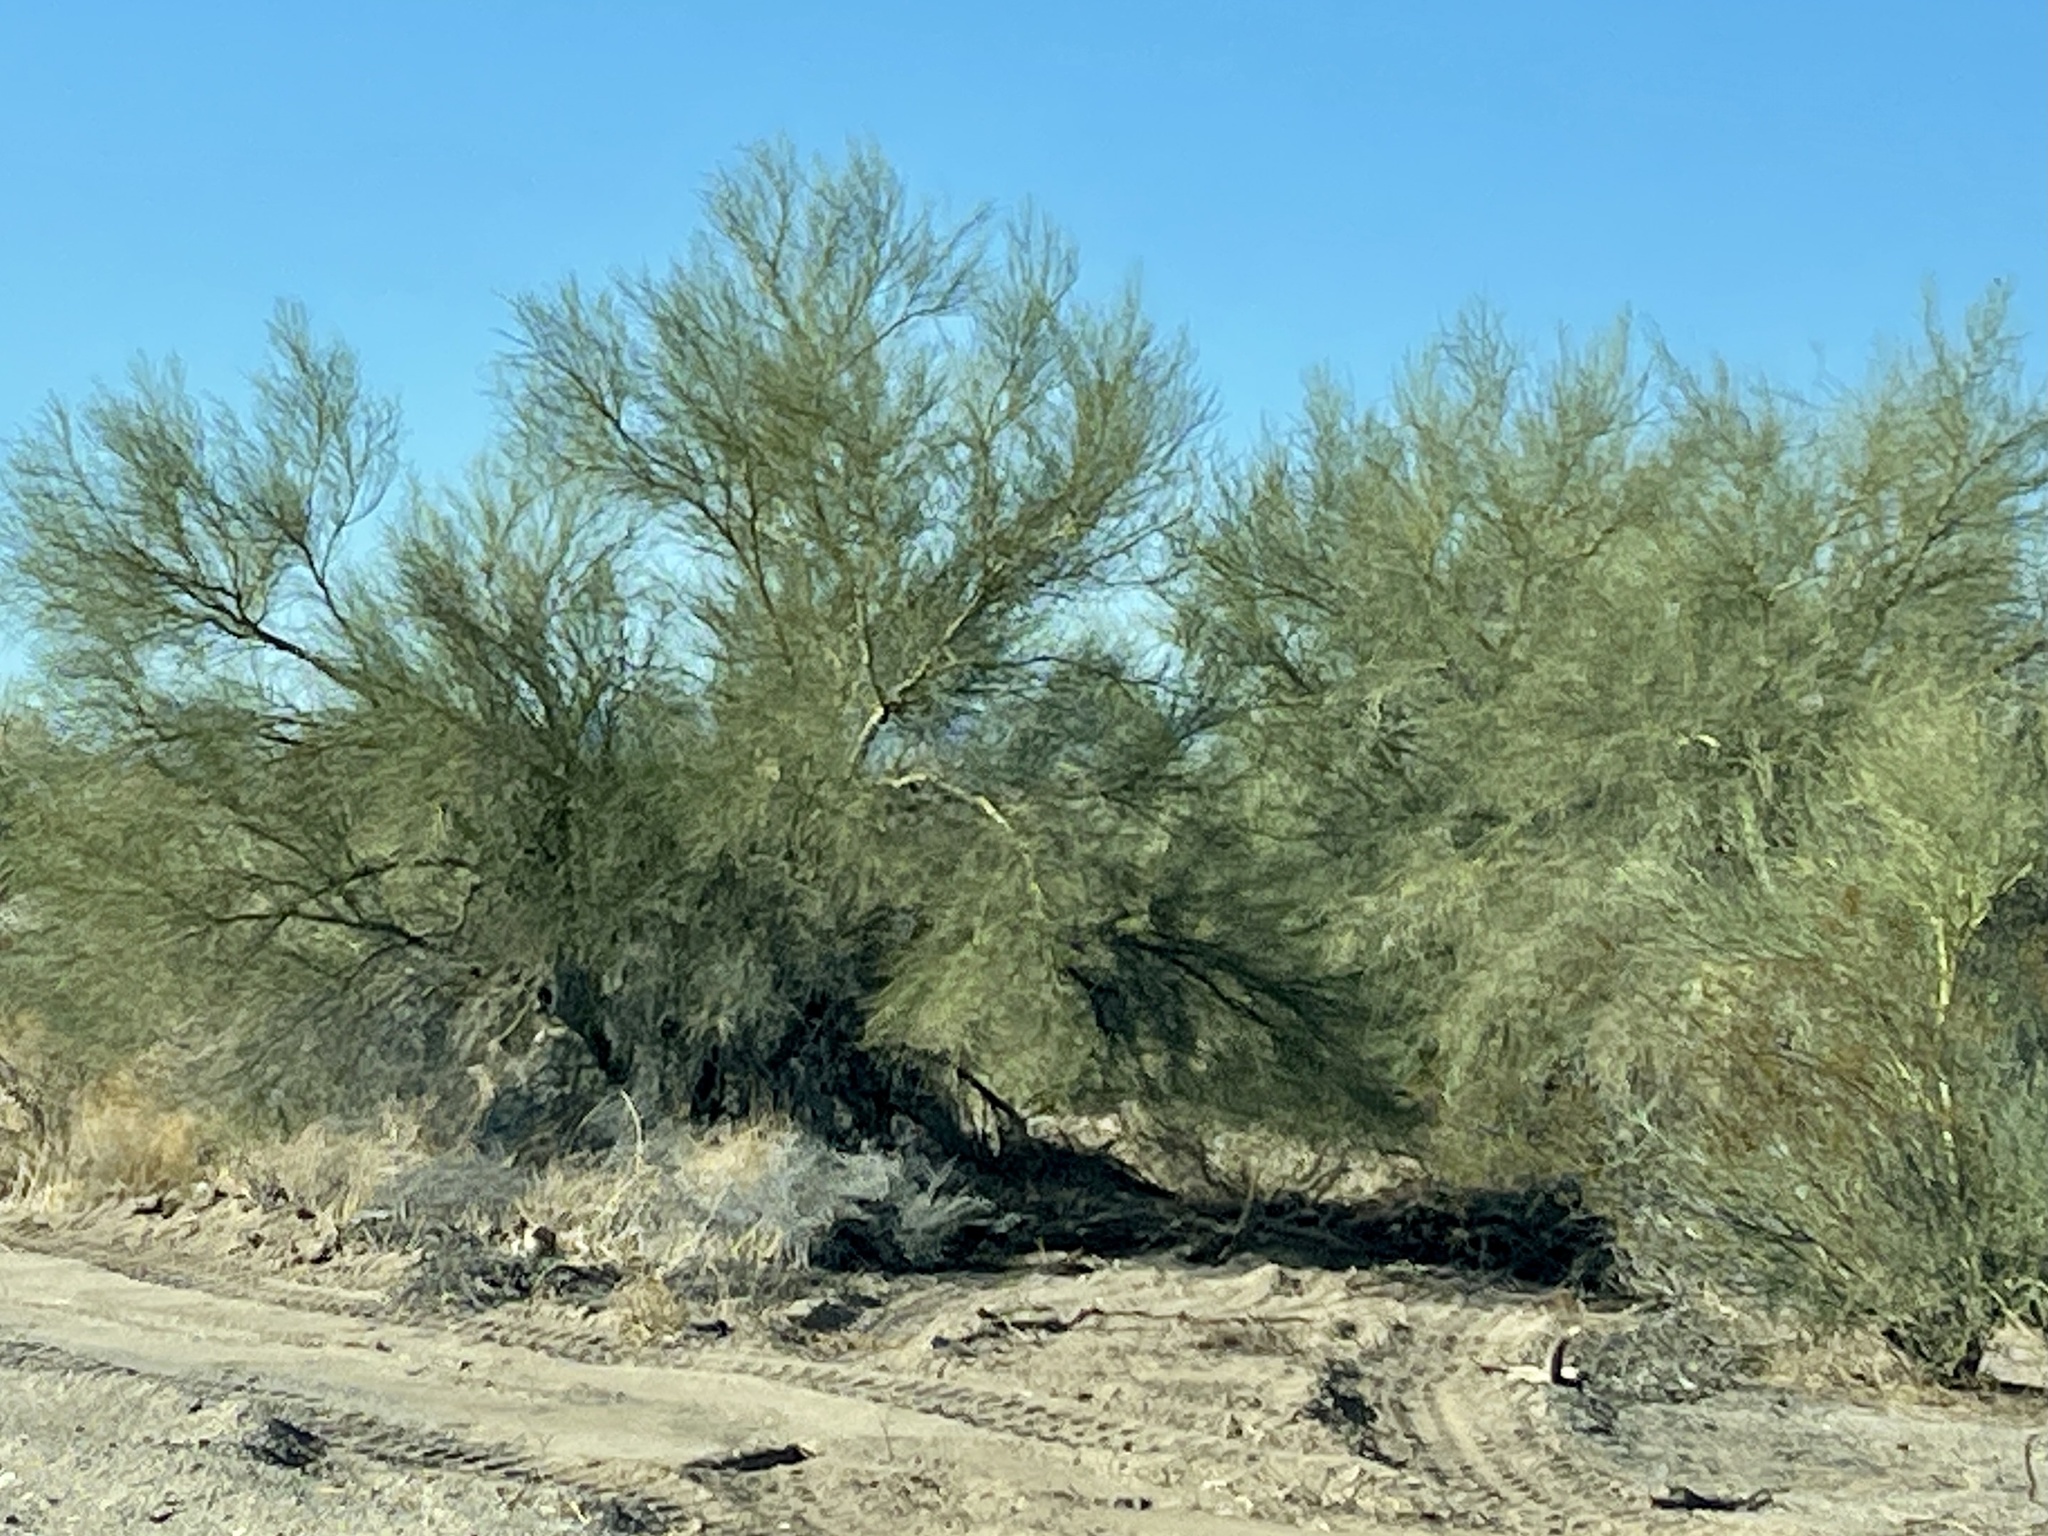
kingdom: Plantae
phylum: Tracheophyta
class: Magnoliopsida
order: Fabales
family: Fabaceae
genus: Parkinsonia
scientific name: Parkinsonia florida
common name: Blue paloverde
